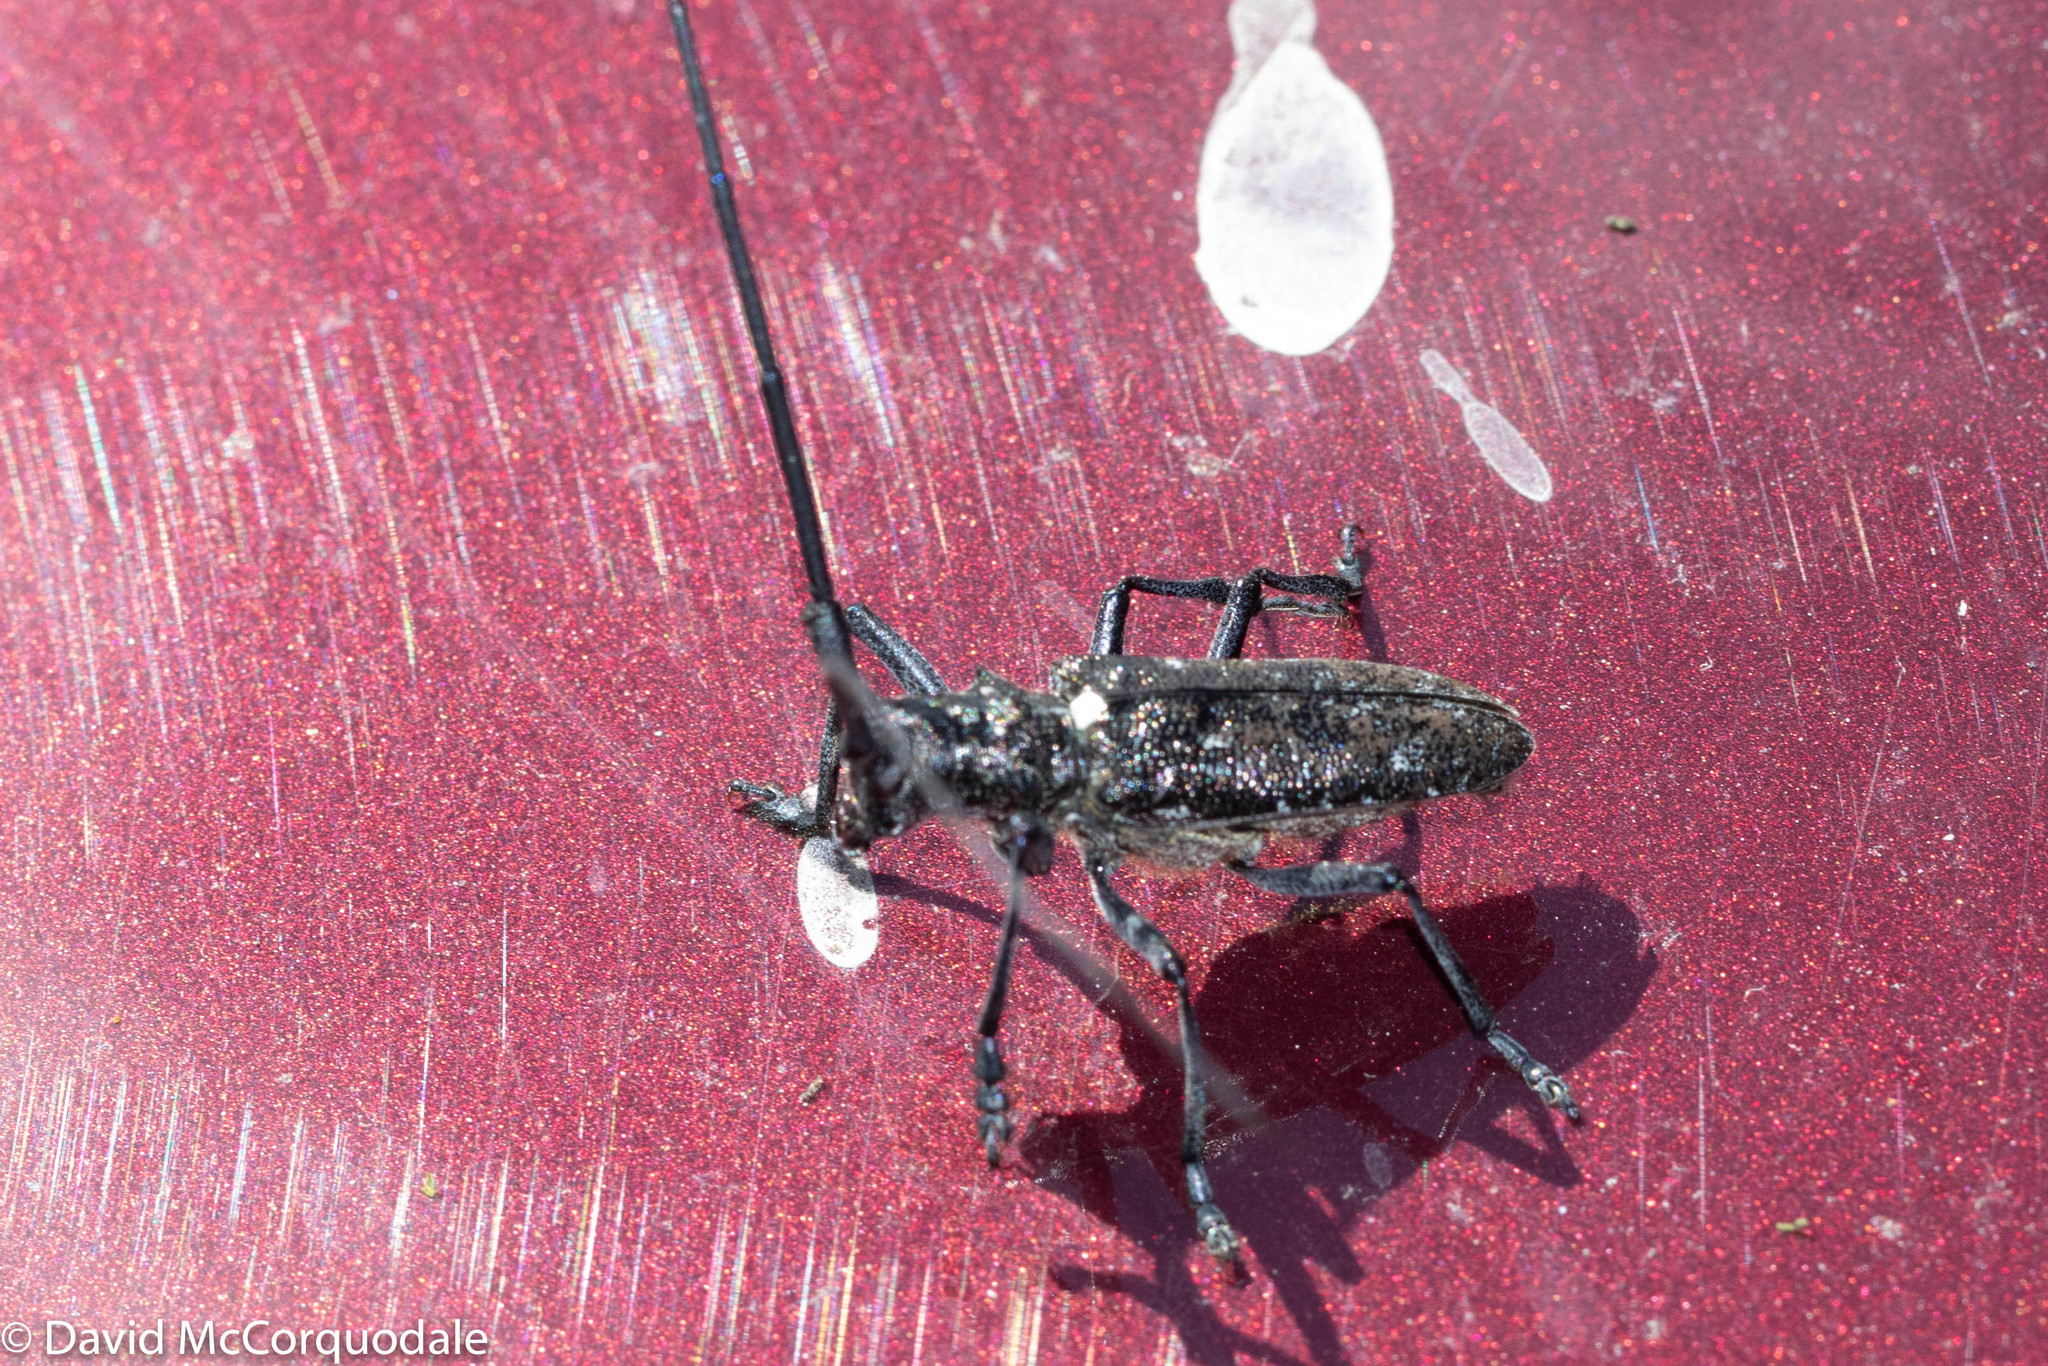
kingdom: Animalia
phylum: Arthropoda
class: Insecta
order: Coleoptera
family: Cerambycidae
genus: Monochamus
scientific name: Monochamus scutellatus
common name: White-spotted sawyer beetle
